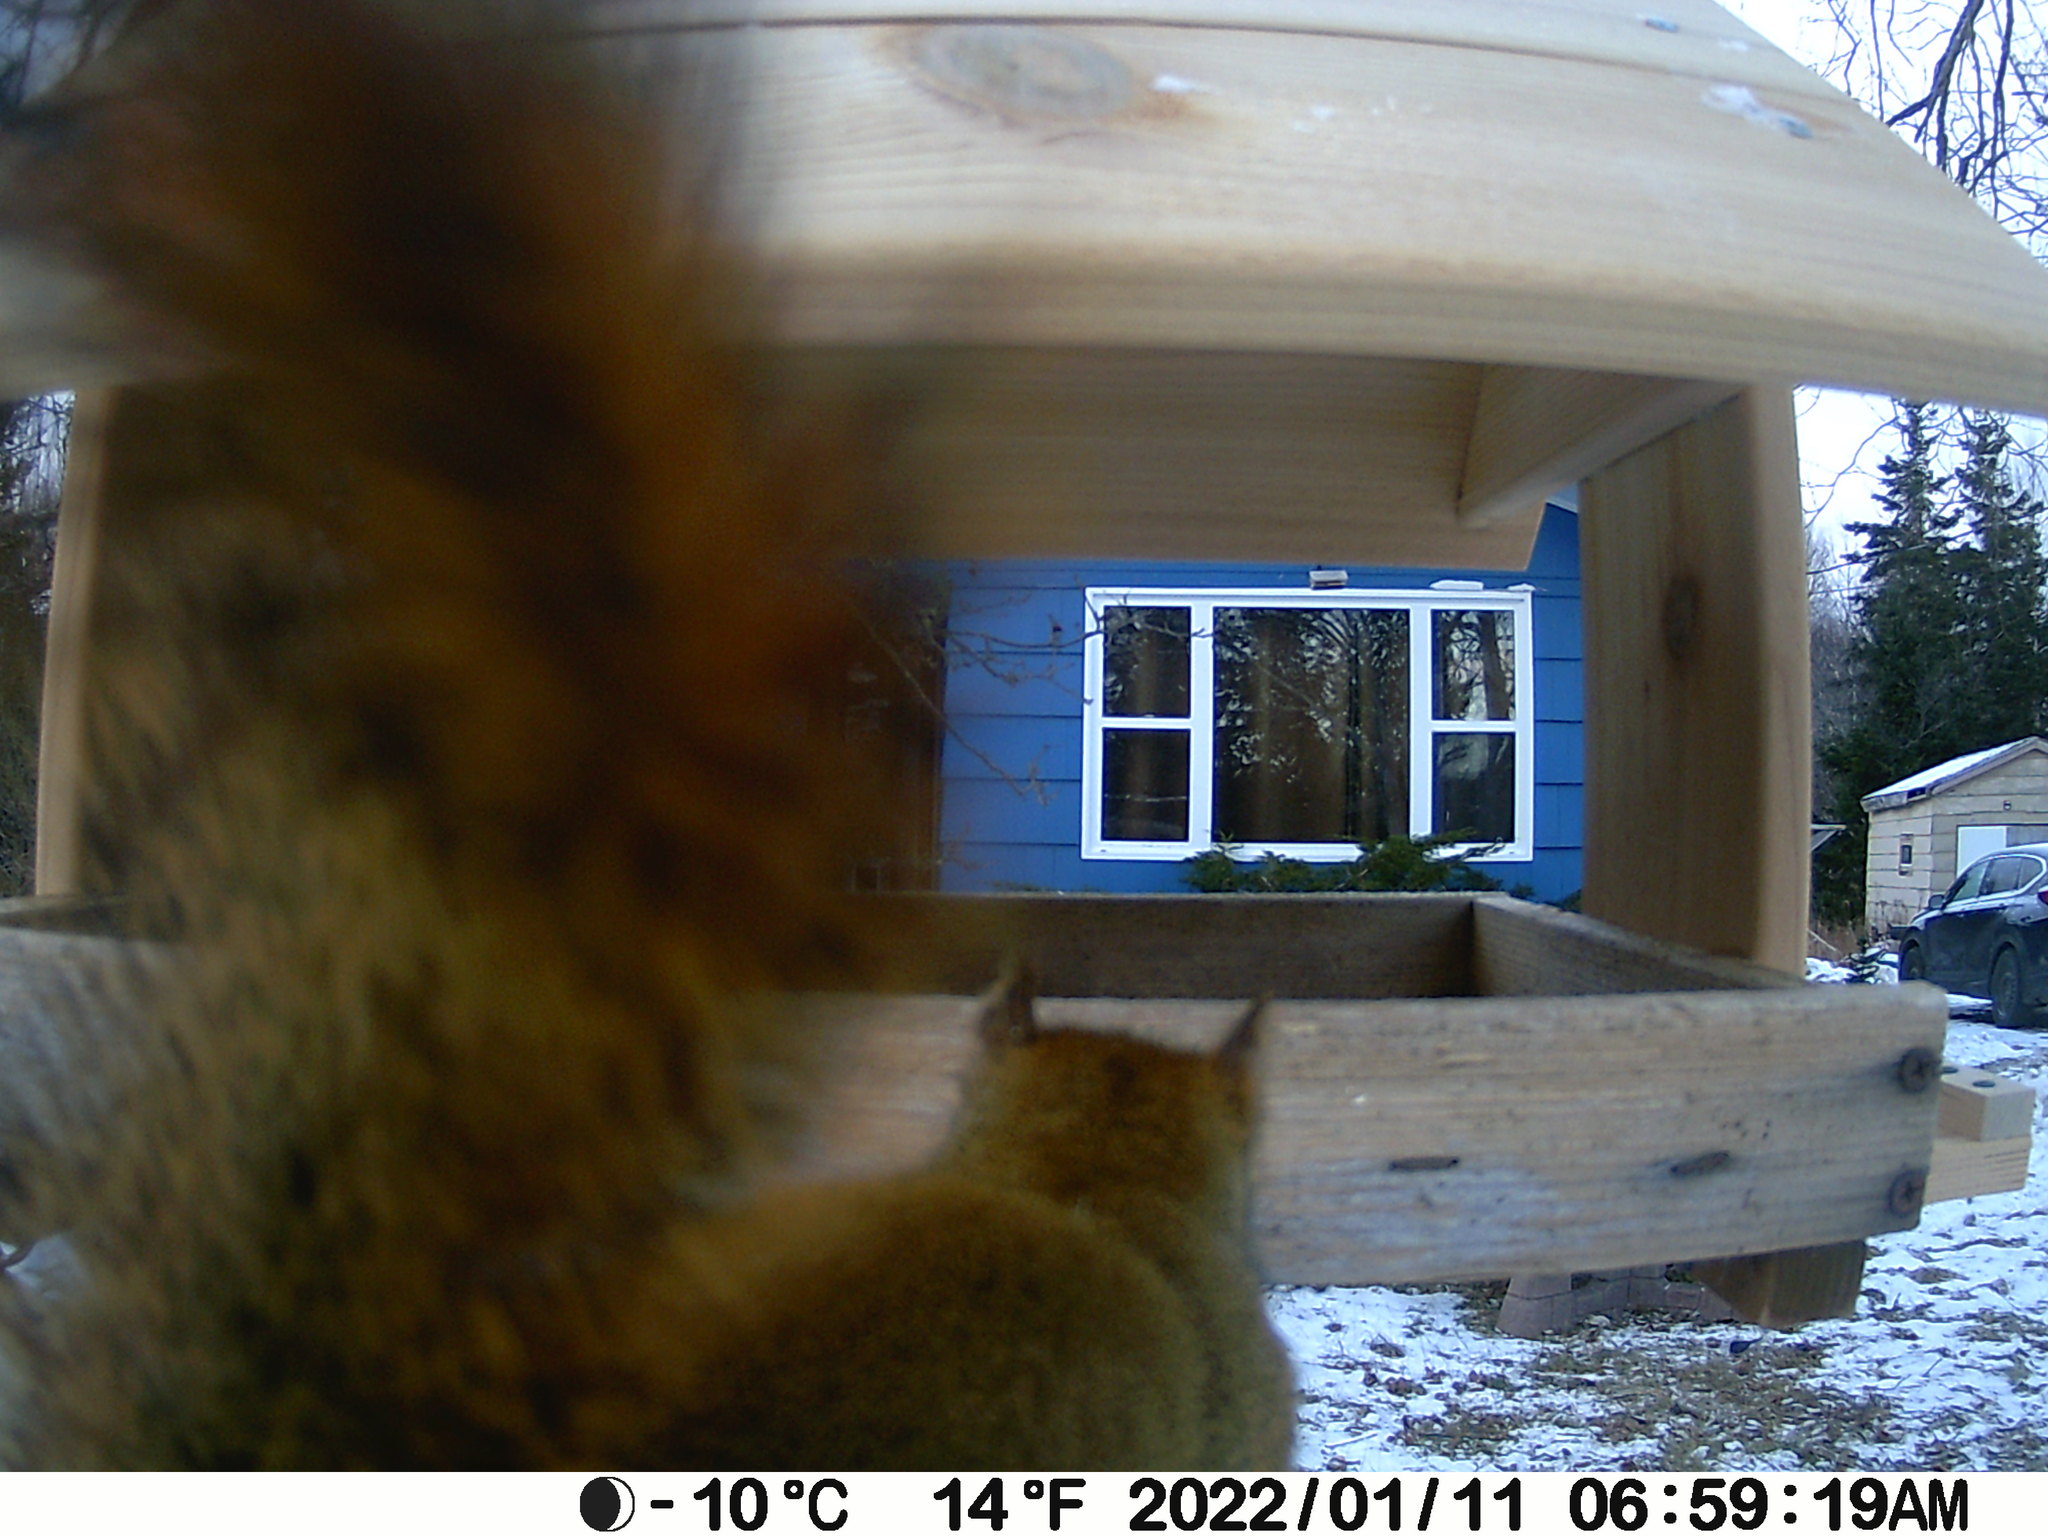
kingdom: Animalia
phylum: Chordata
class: Mammalia
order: Rodentia
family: Sciuridae
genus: Tamiasciurus
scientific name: Tamiasciurus hudsonicus
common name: Red squirrel
